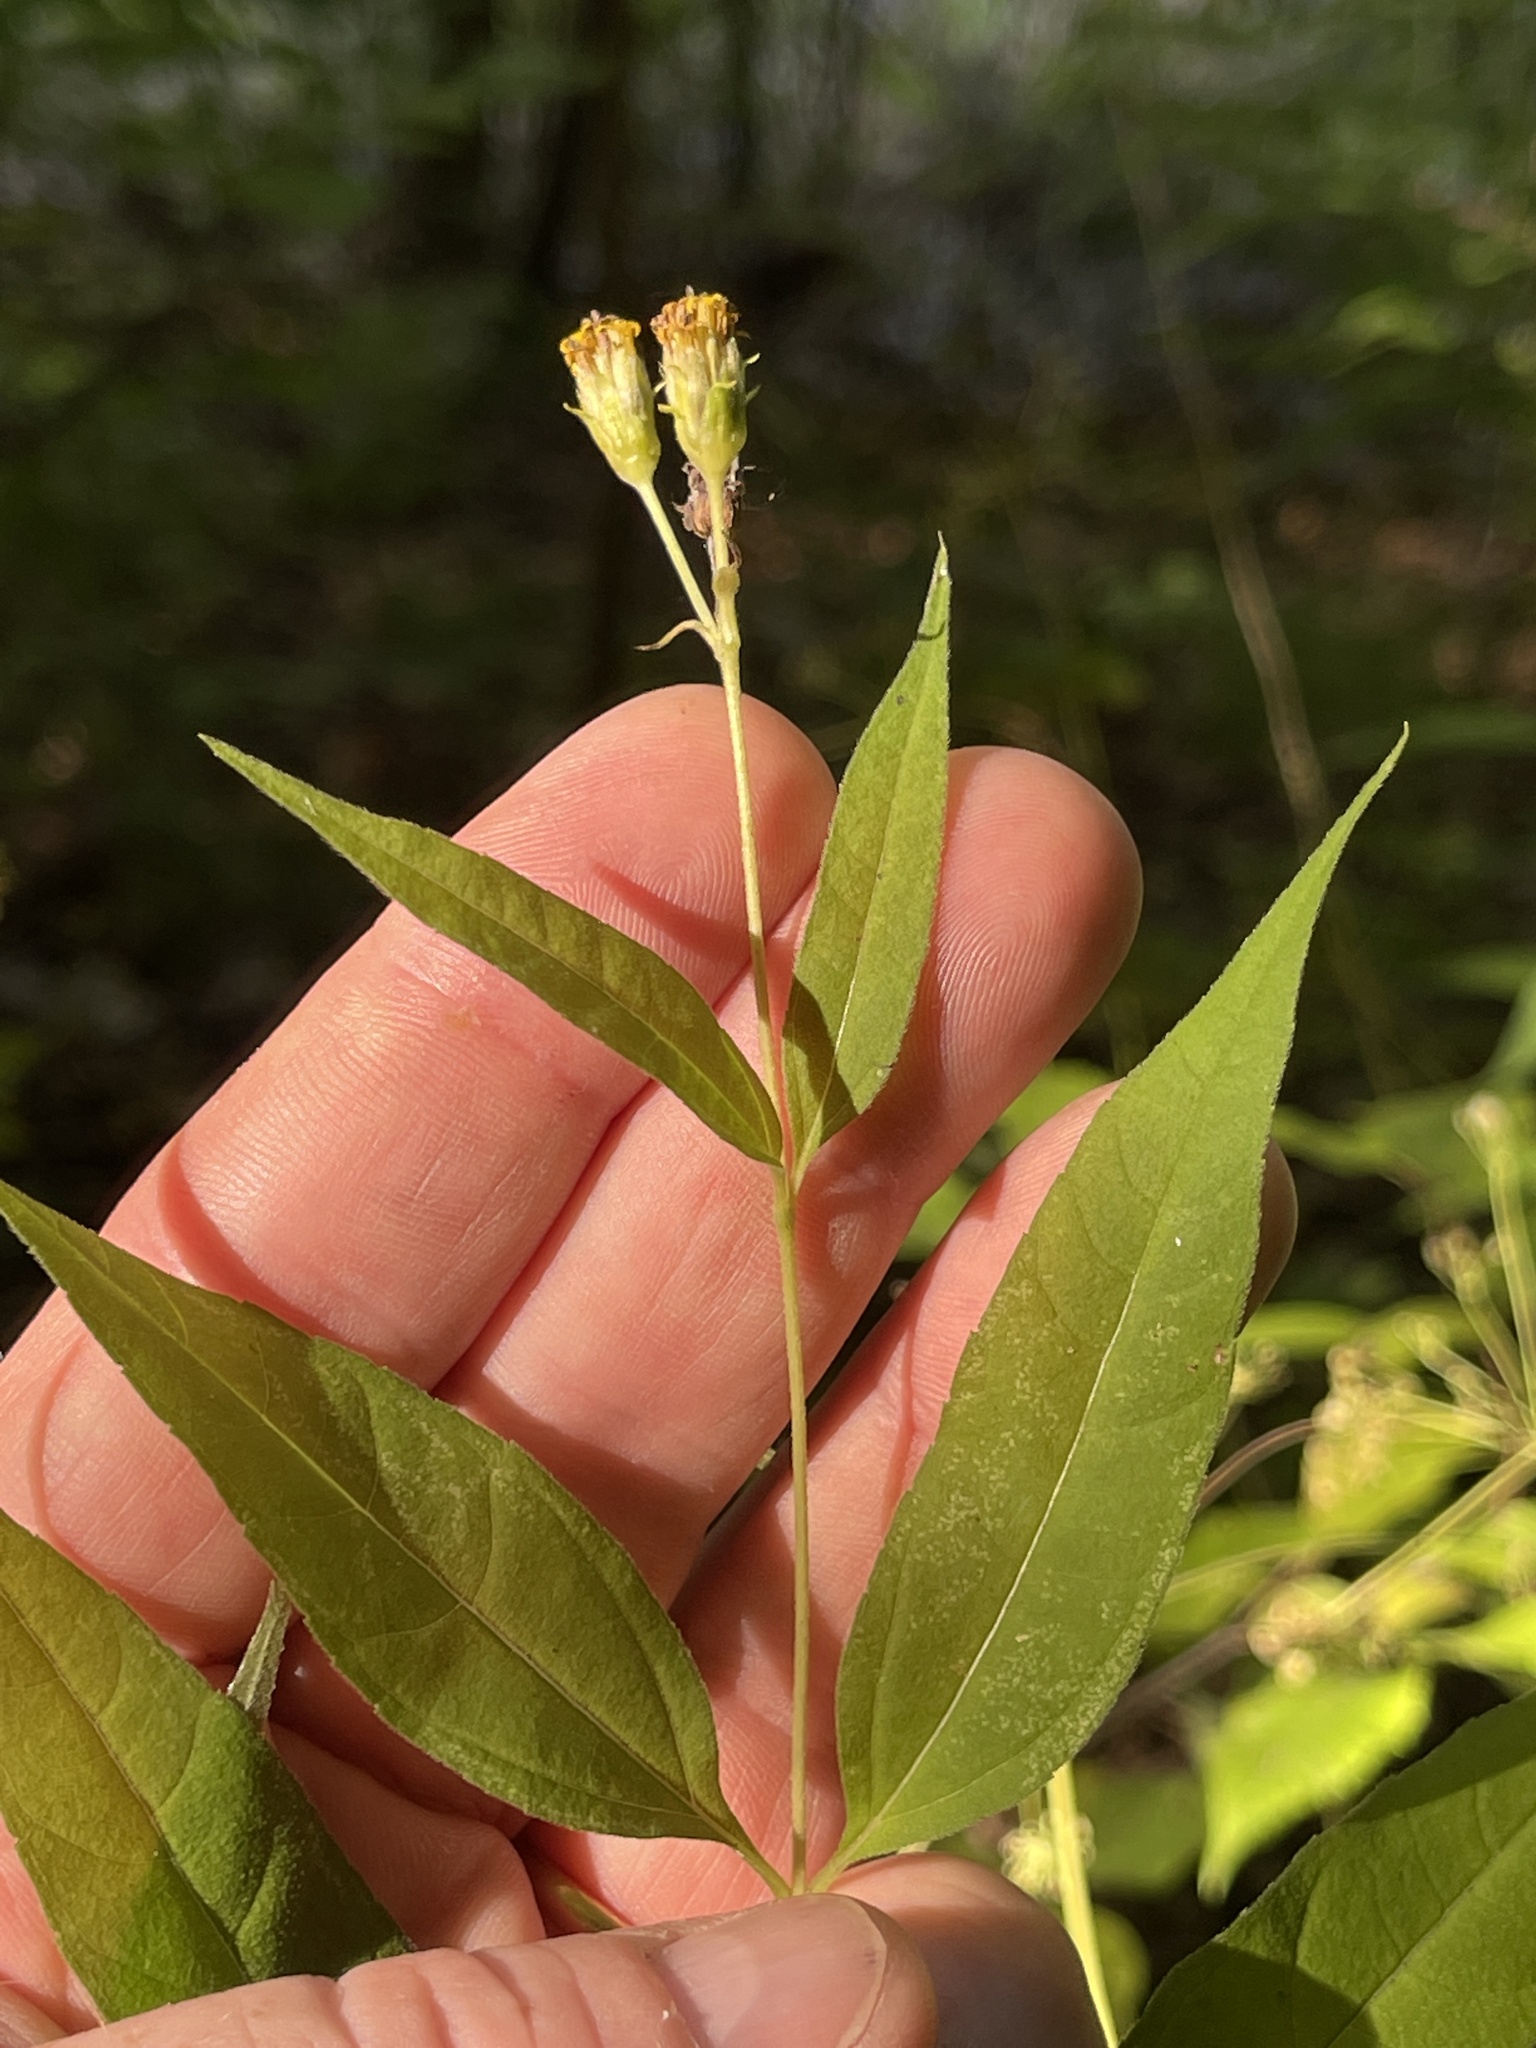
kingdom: Plantae
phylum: Tracheophyta
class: Magnoliopsida
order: Asterales
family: Asteraceae
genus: Helianthus
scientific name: Helianthus microcephalus
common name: Woodland sunflower
